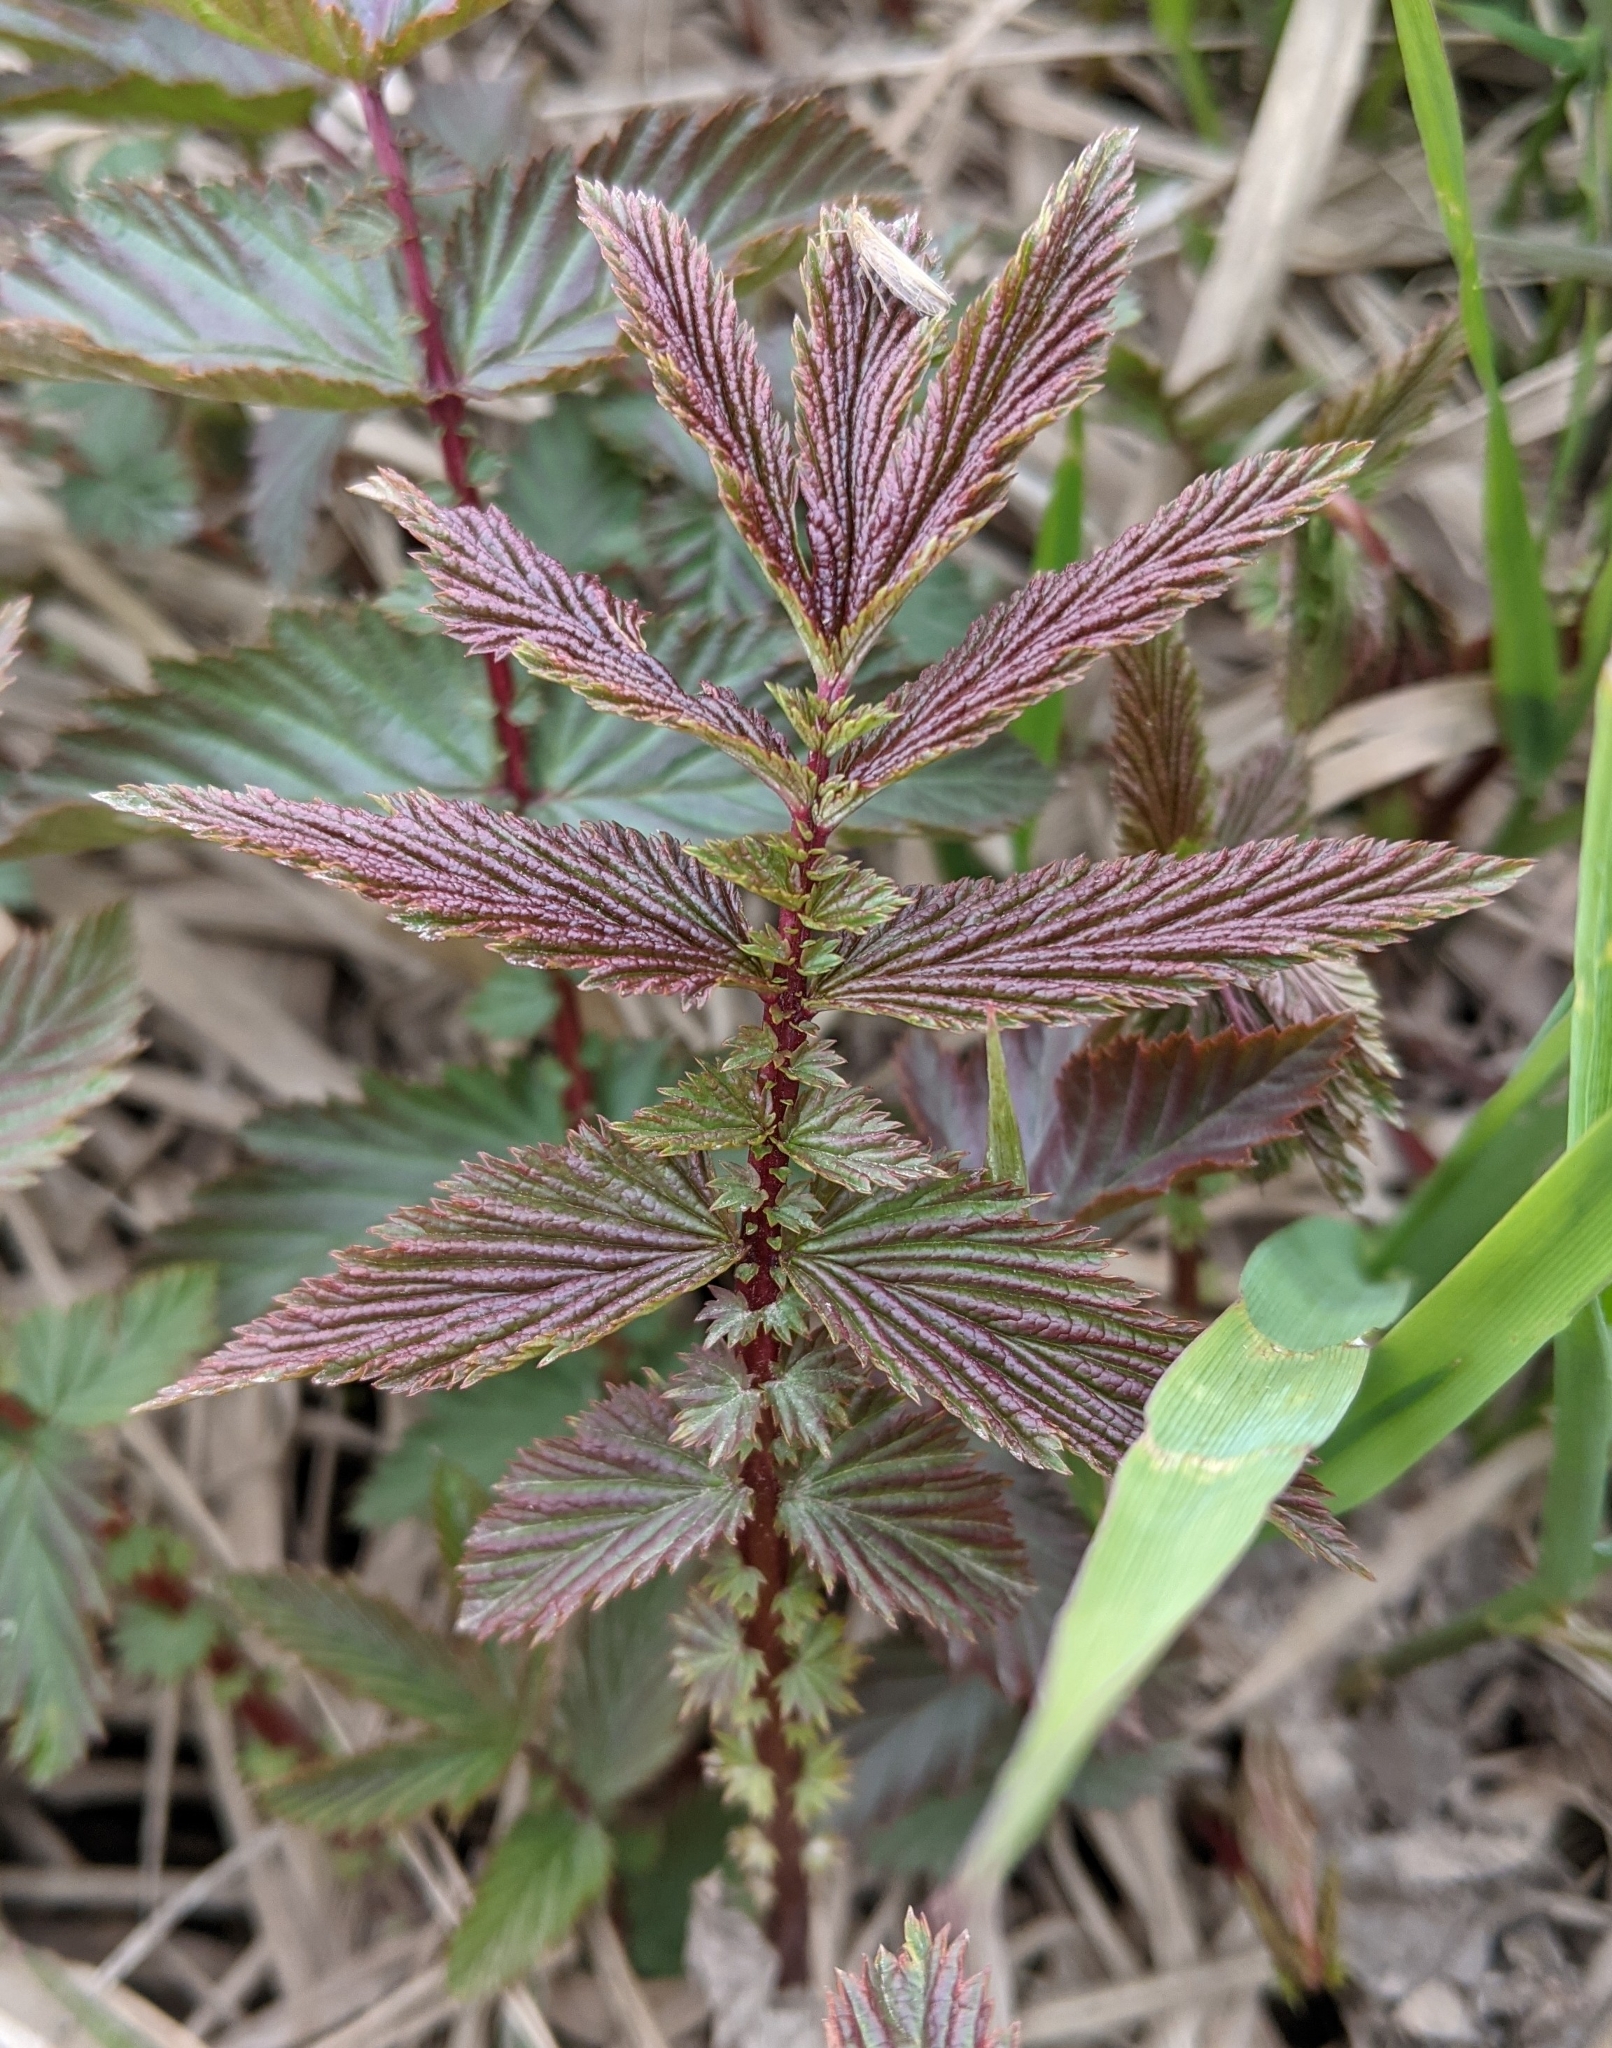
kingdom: Plantae
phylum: Tracheophyta
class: Magnoliopsida
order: Rosales
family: Rosaceae
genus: Filipendula
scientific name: Filipendula ulmaria
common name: Meadowsweet
